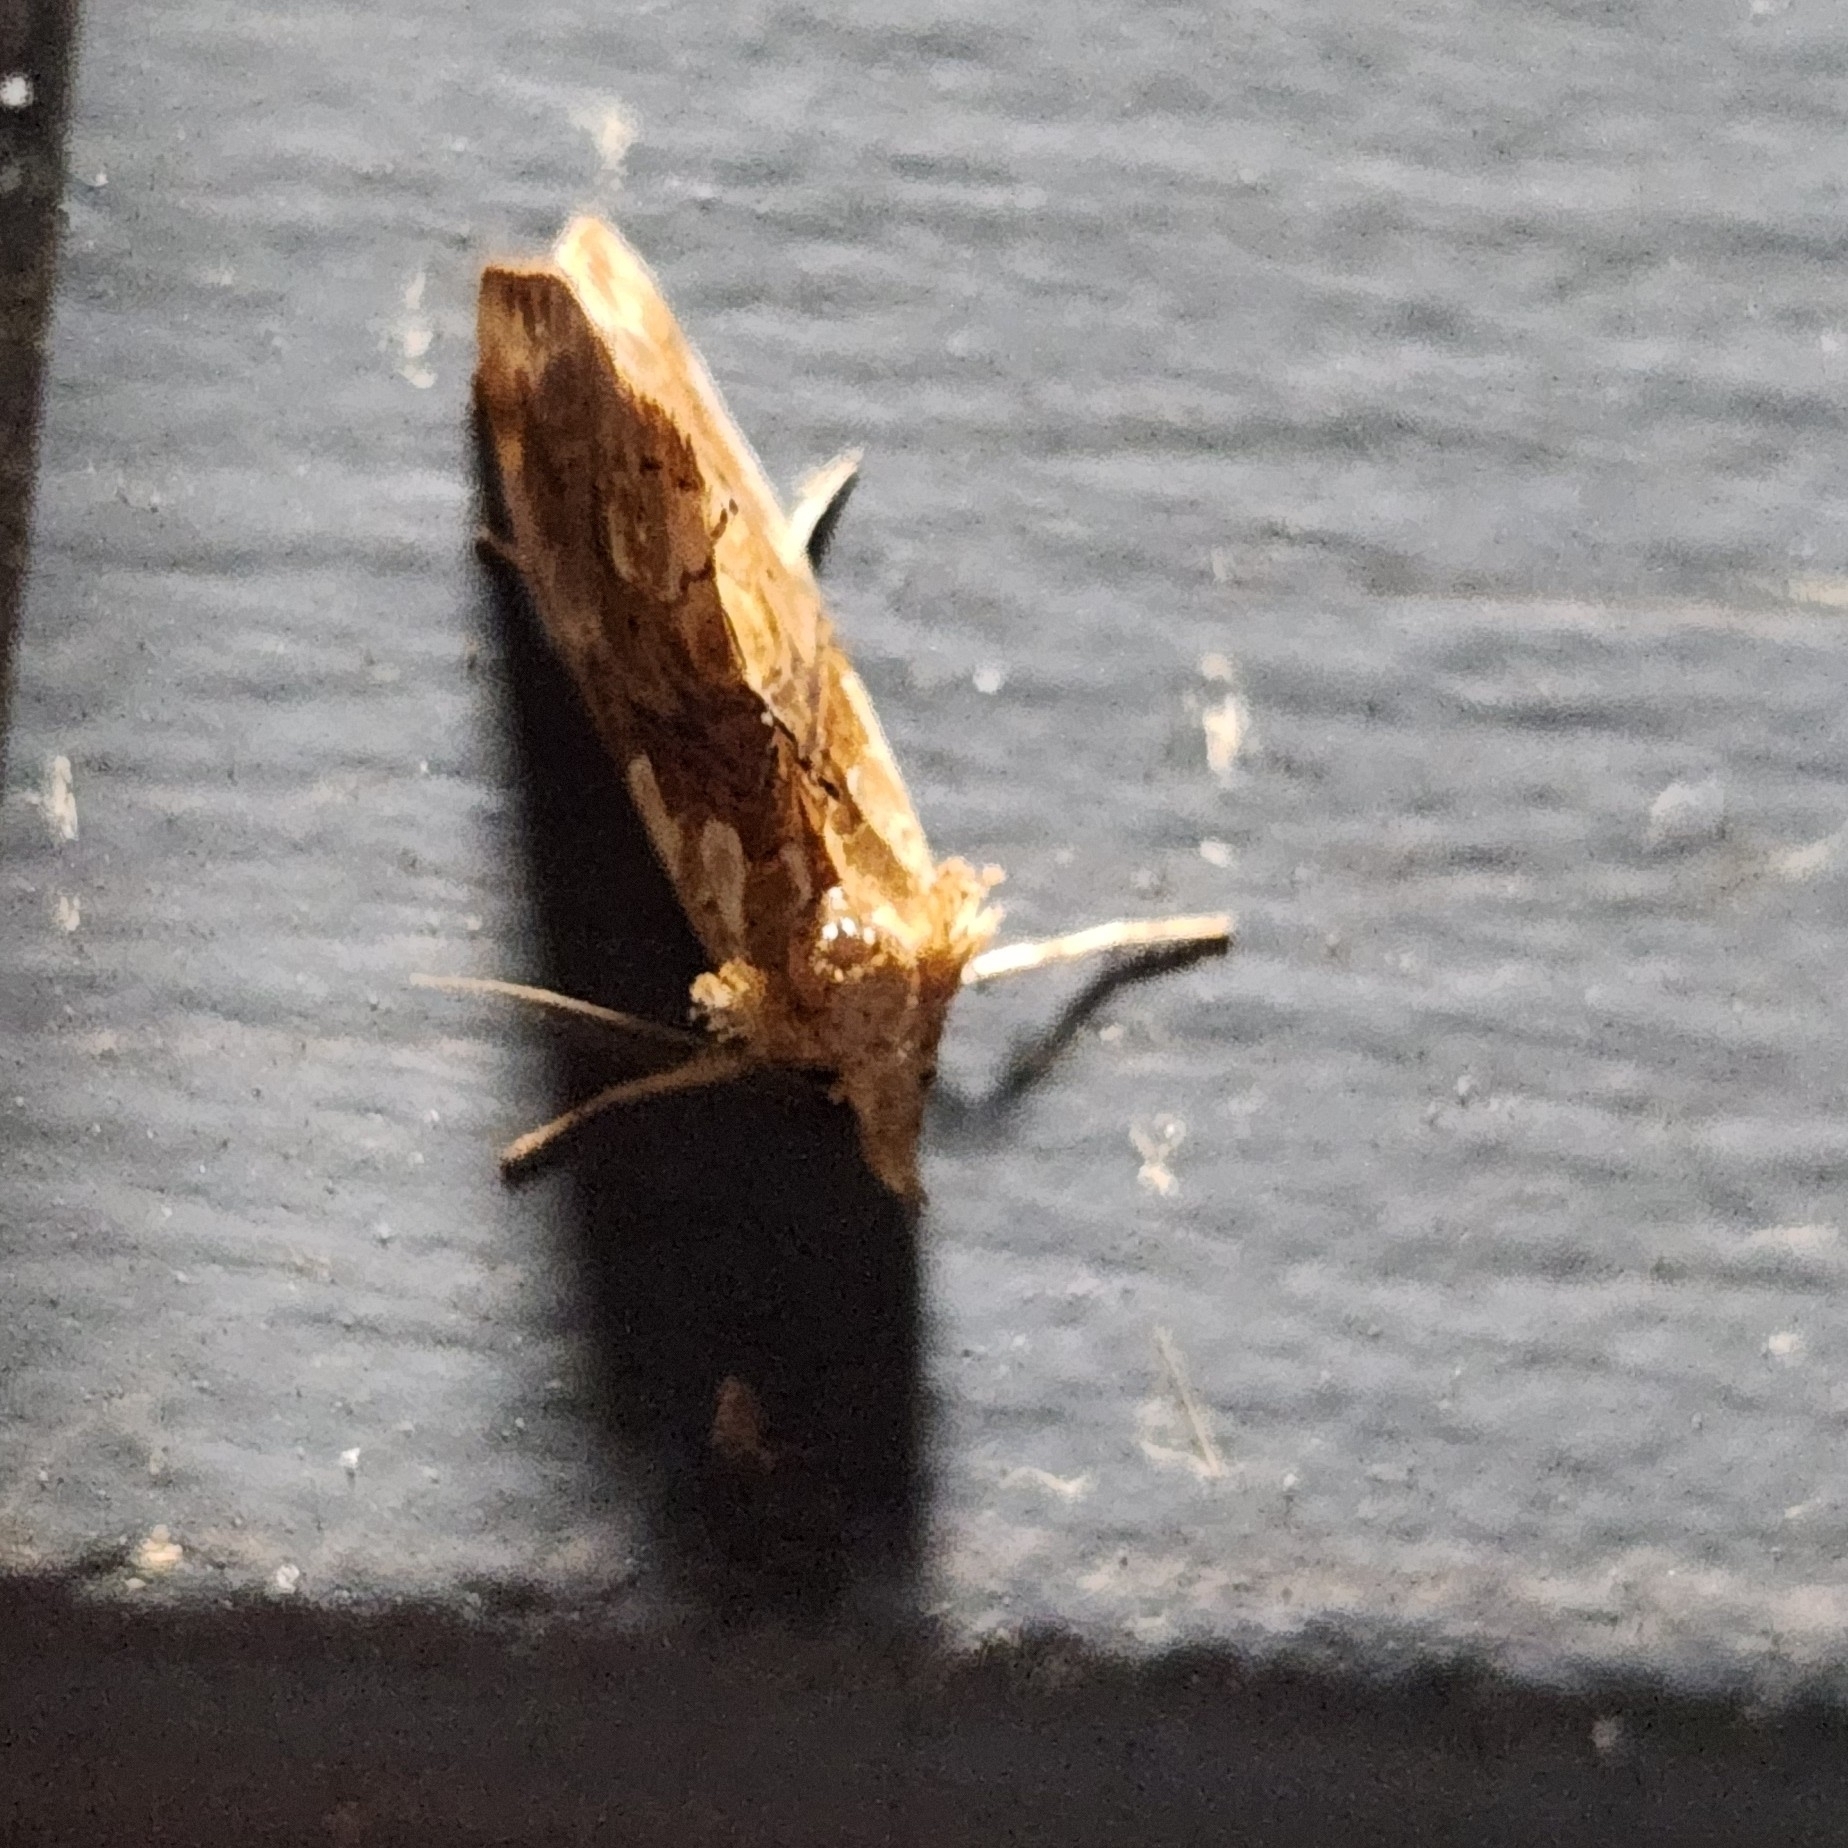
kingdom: Animalia
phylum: Arthropoda
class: Insecta
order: Lepidoptera
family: Erebidae
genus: Plusiodonta
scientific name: Plusiodonta compressipalpis
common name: Moonseed moth
